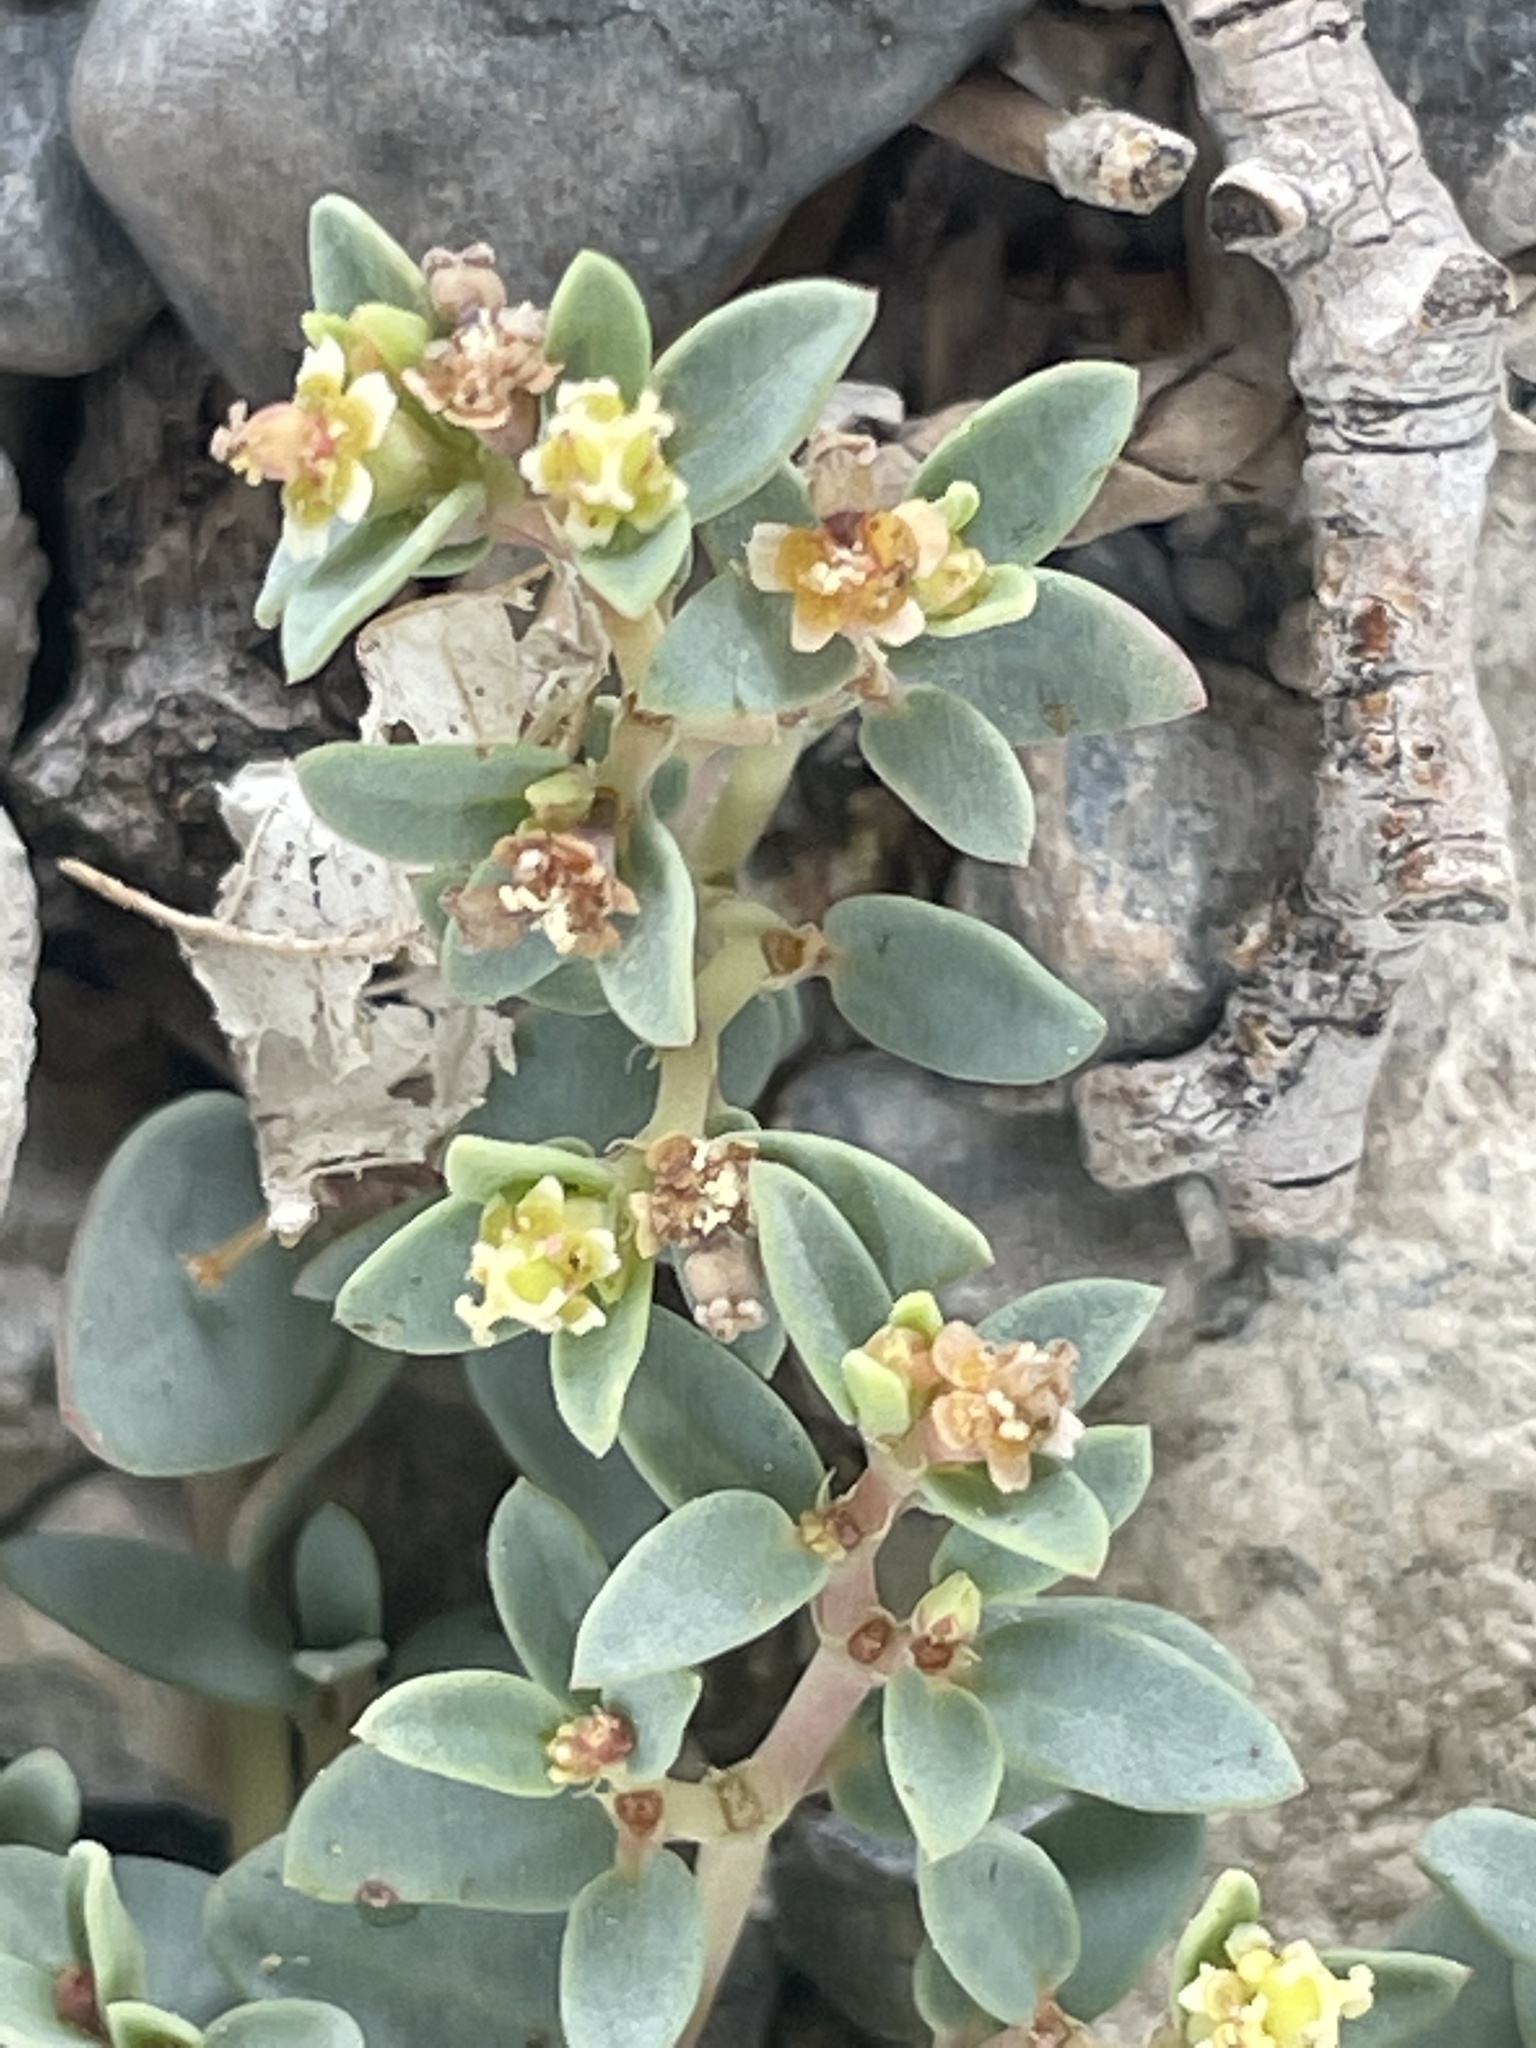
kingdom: Plantae
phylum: Tracheophyta
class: Magnoliopsida
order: Malpighiales
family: Euphorbiaceae
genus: Euphorbia
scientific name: Euphorbia fendleri
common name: Fendler's euphorbia
